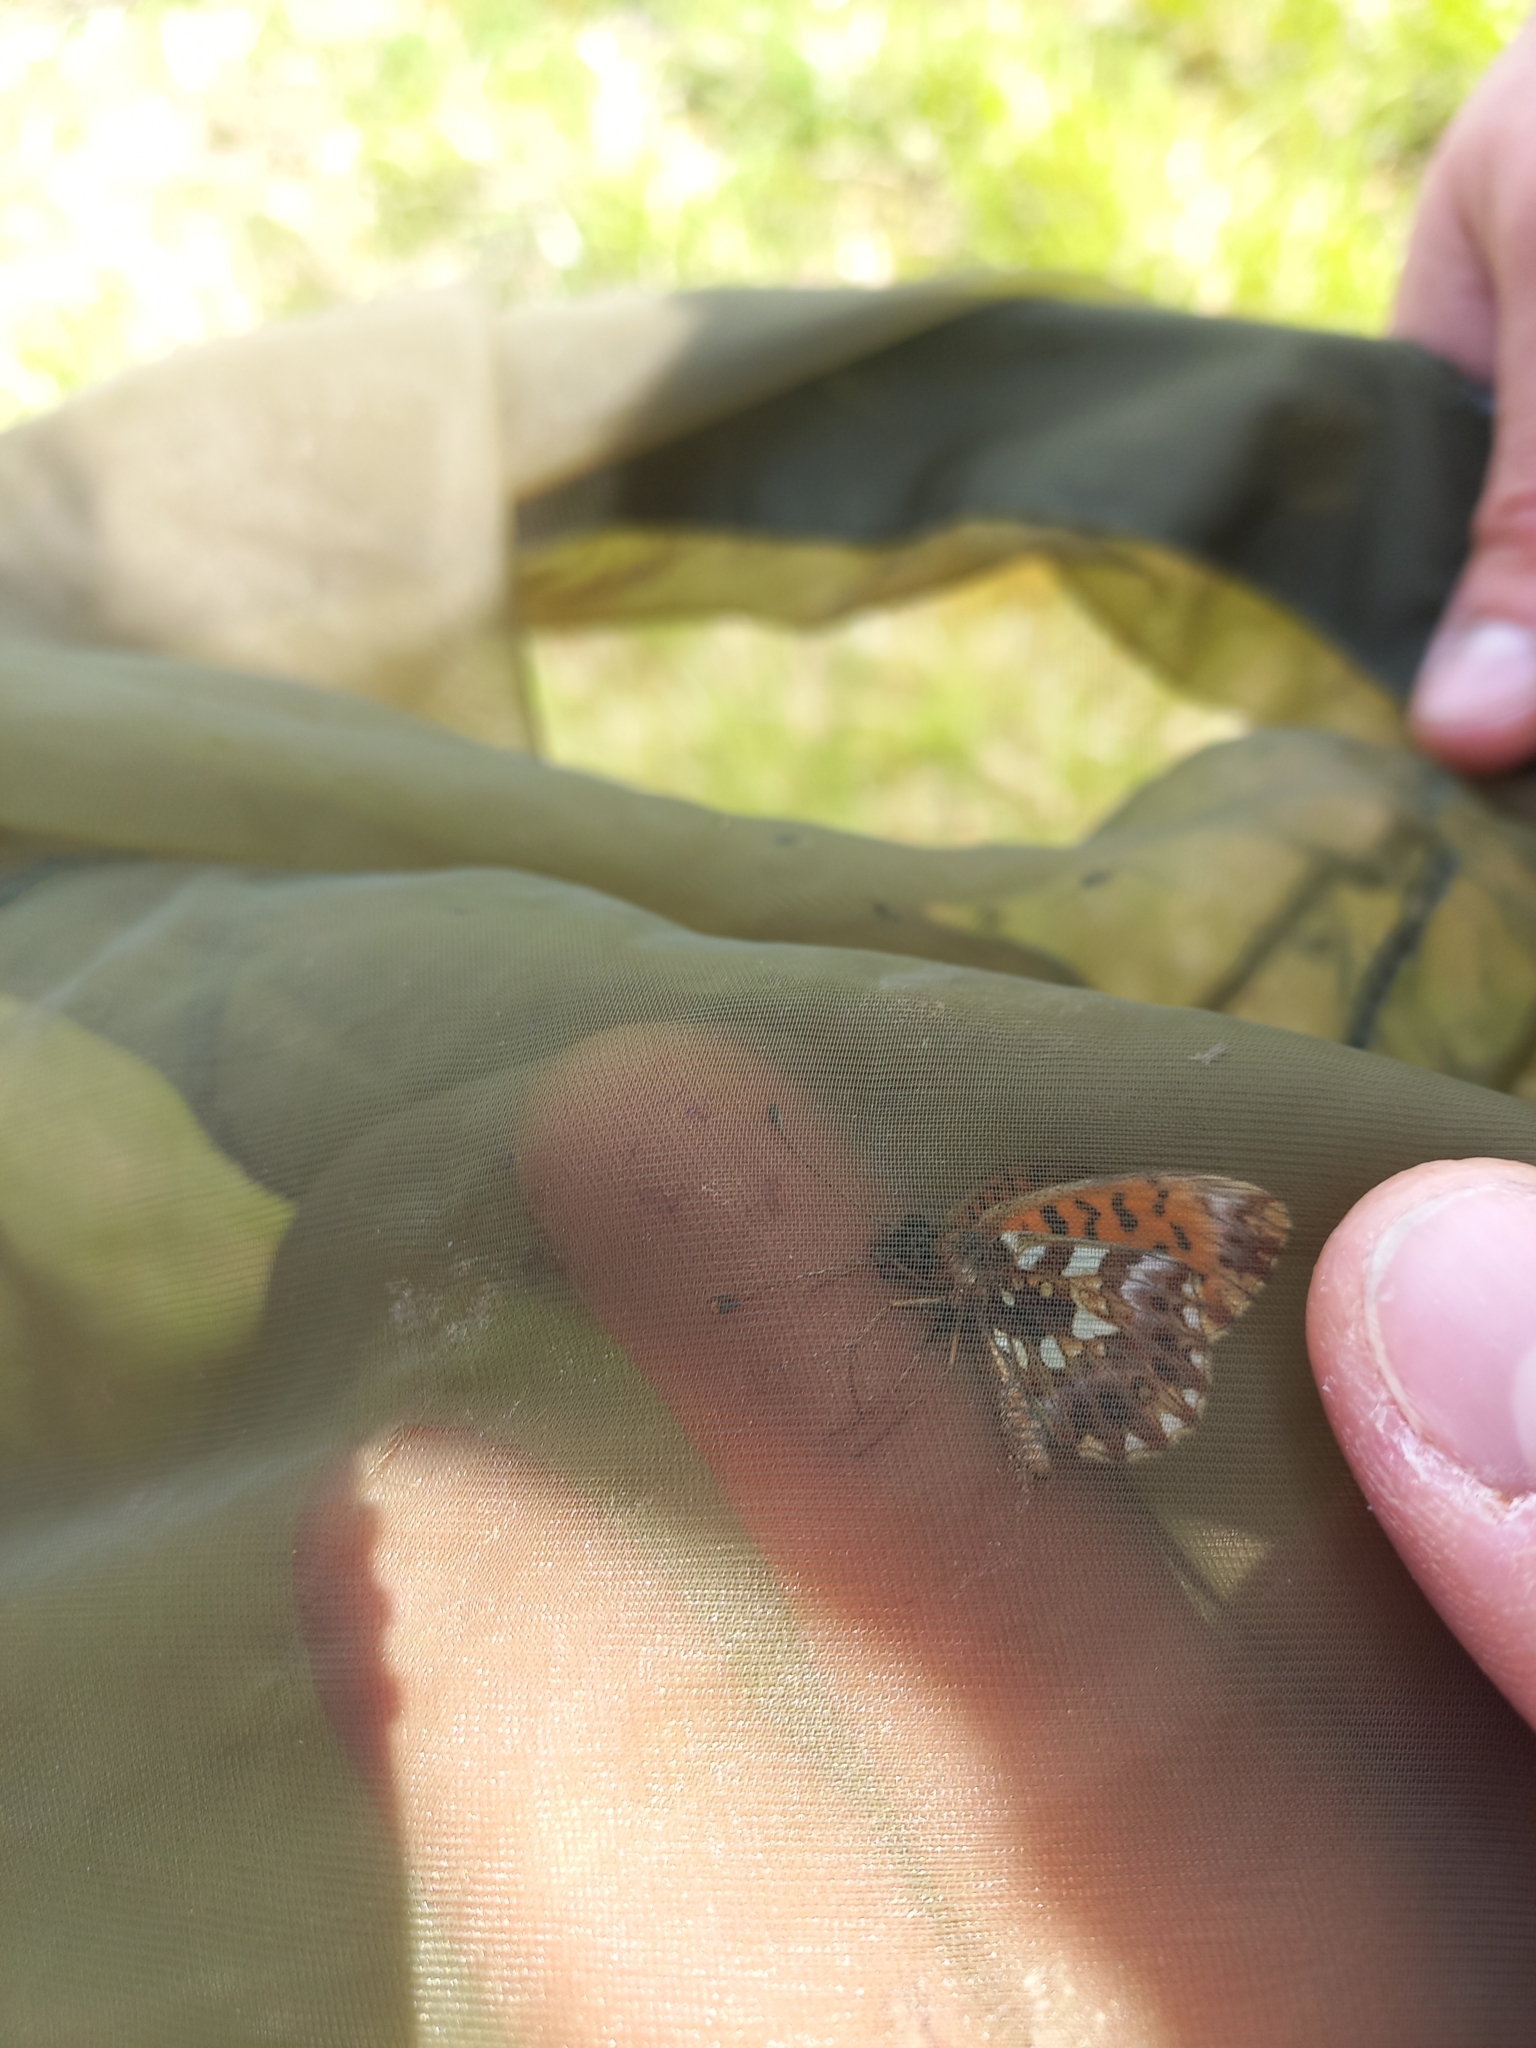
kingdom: Animalia
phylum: Arthropoda
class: Insecta
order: Lepidoptera
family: Nymphalidae
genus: Boloria
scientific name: Boloria dia
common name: Weaver's fritillary
